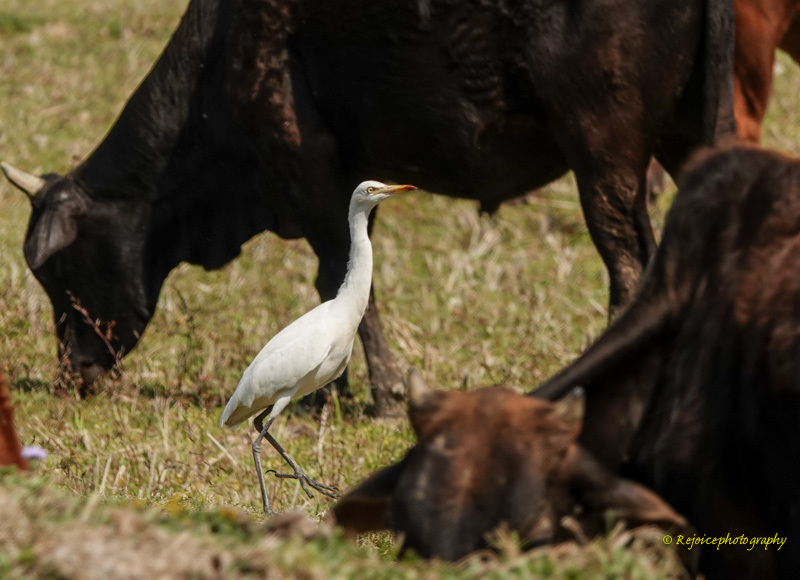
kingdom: Animalia
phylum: Chordata
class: Aves
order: Pelecaniformes
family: Ardeidae
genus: Bubulcus
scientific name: Bubulcus coromandus
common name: Eastern cattle egret
